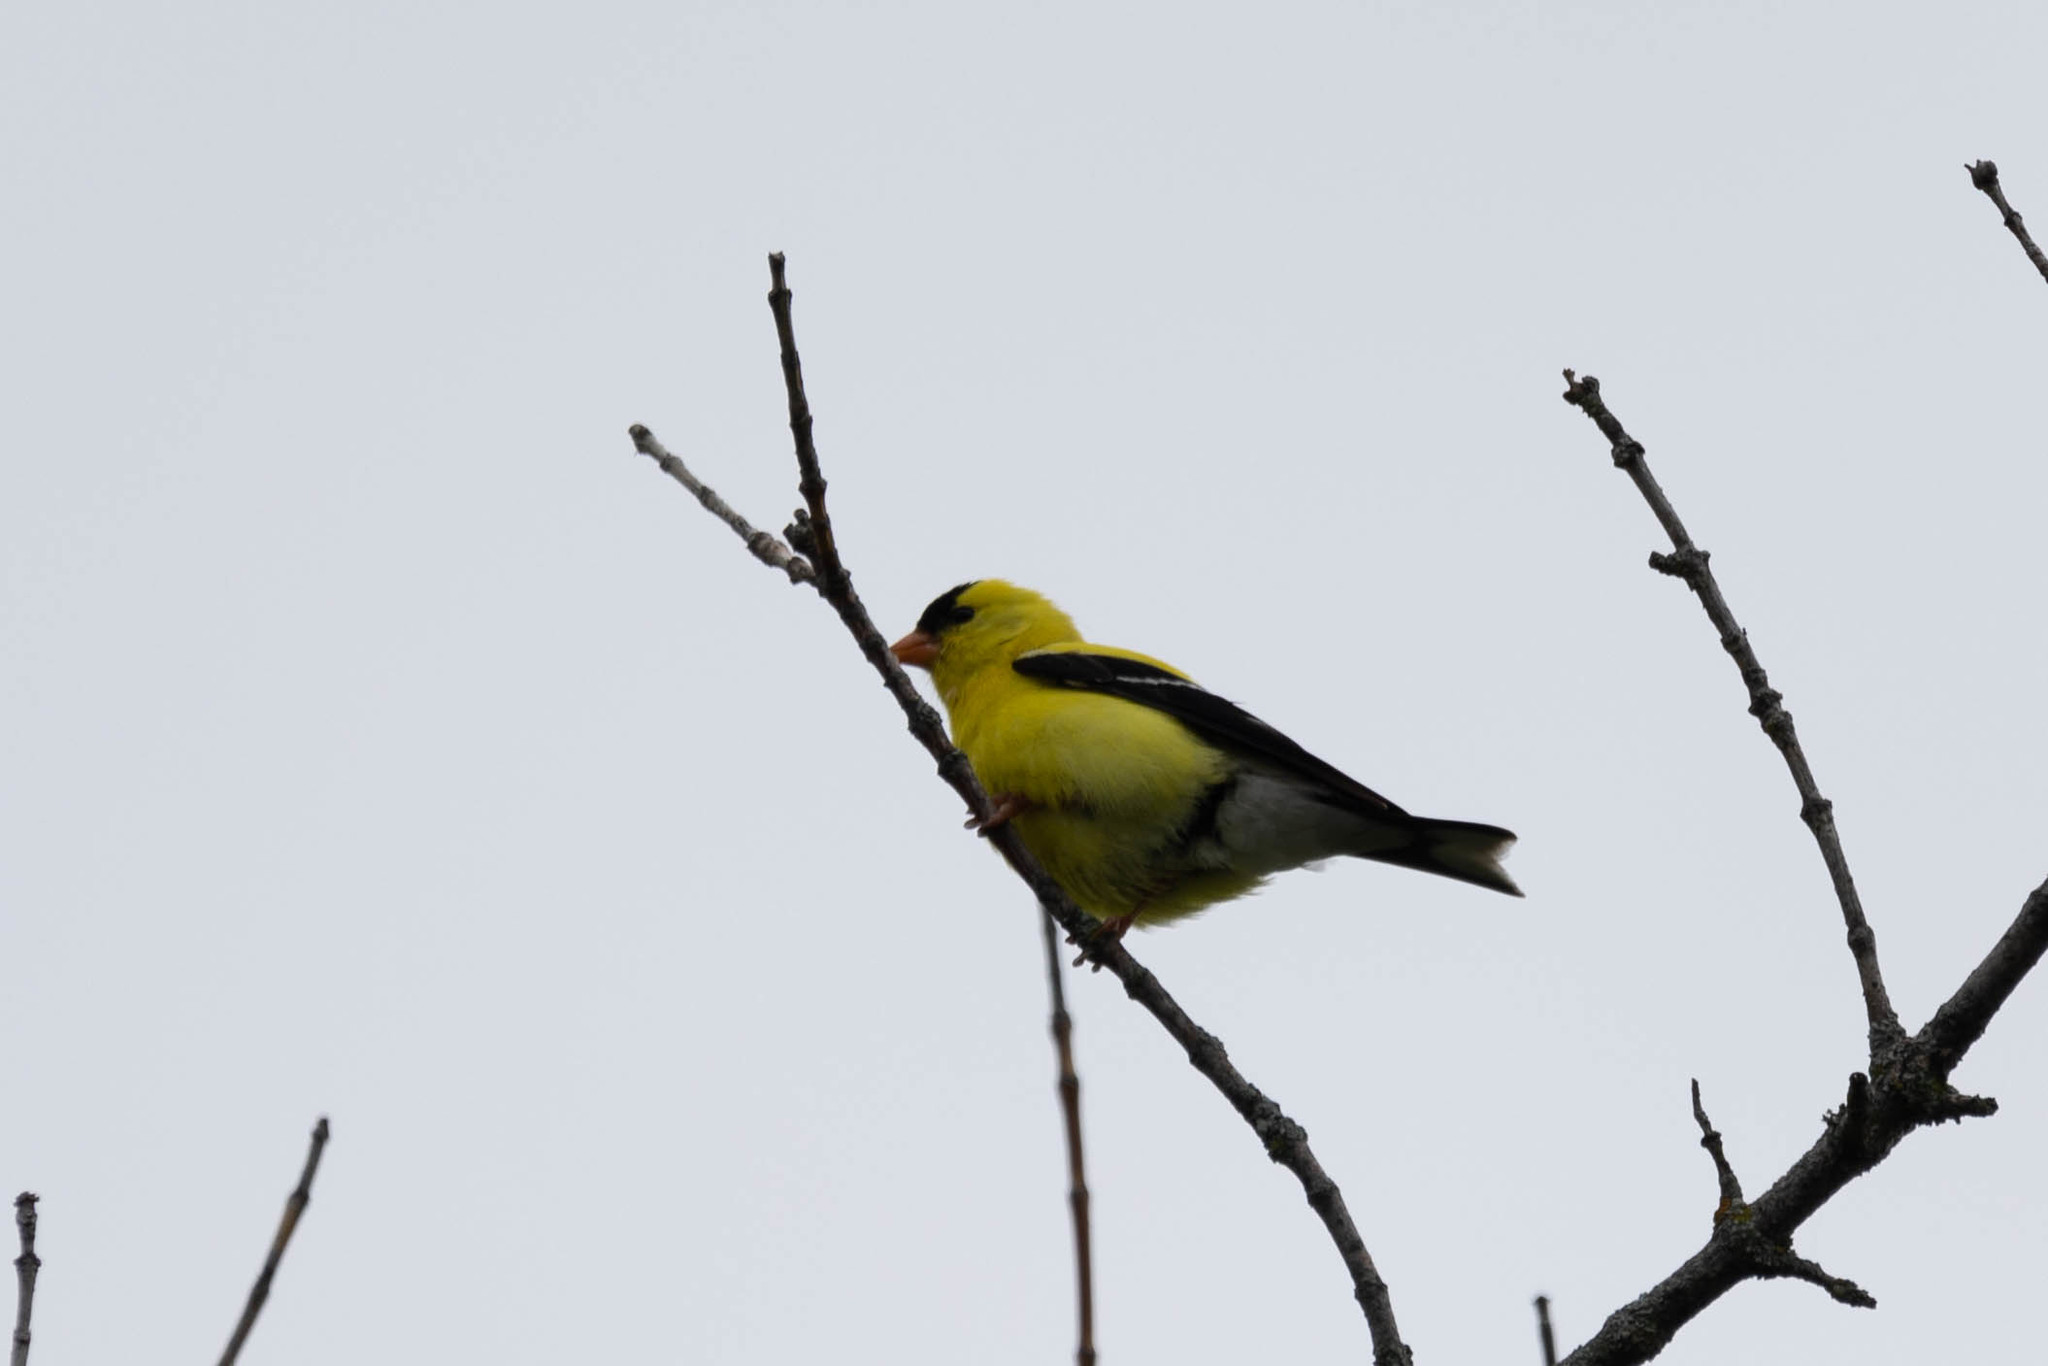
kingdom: Animalia
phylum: Chordata
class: Aves
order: Passeriformes
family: Fringillidae
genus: Spinus
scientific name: Spinus tristis
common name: American goldfinch
